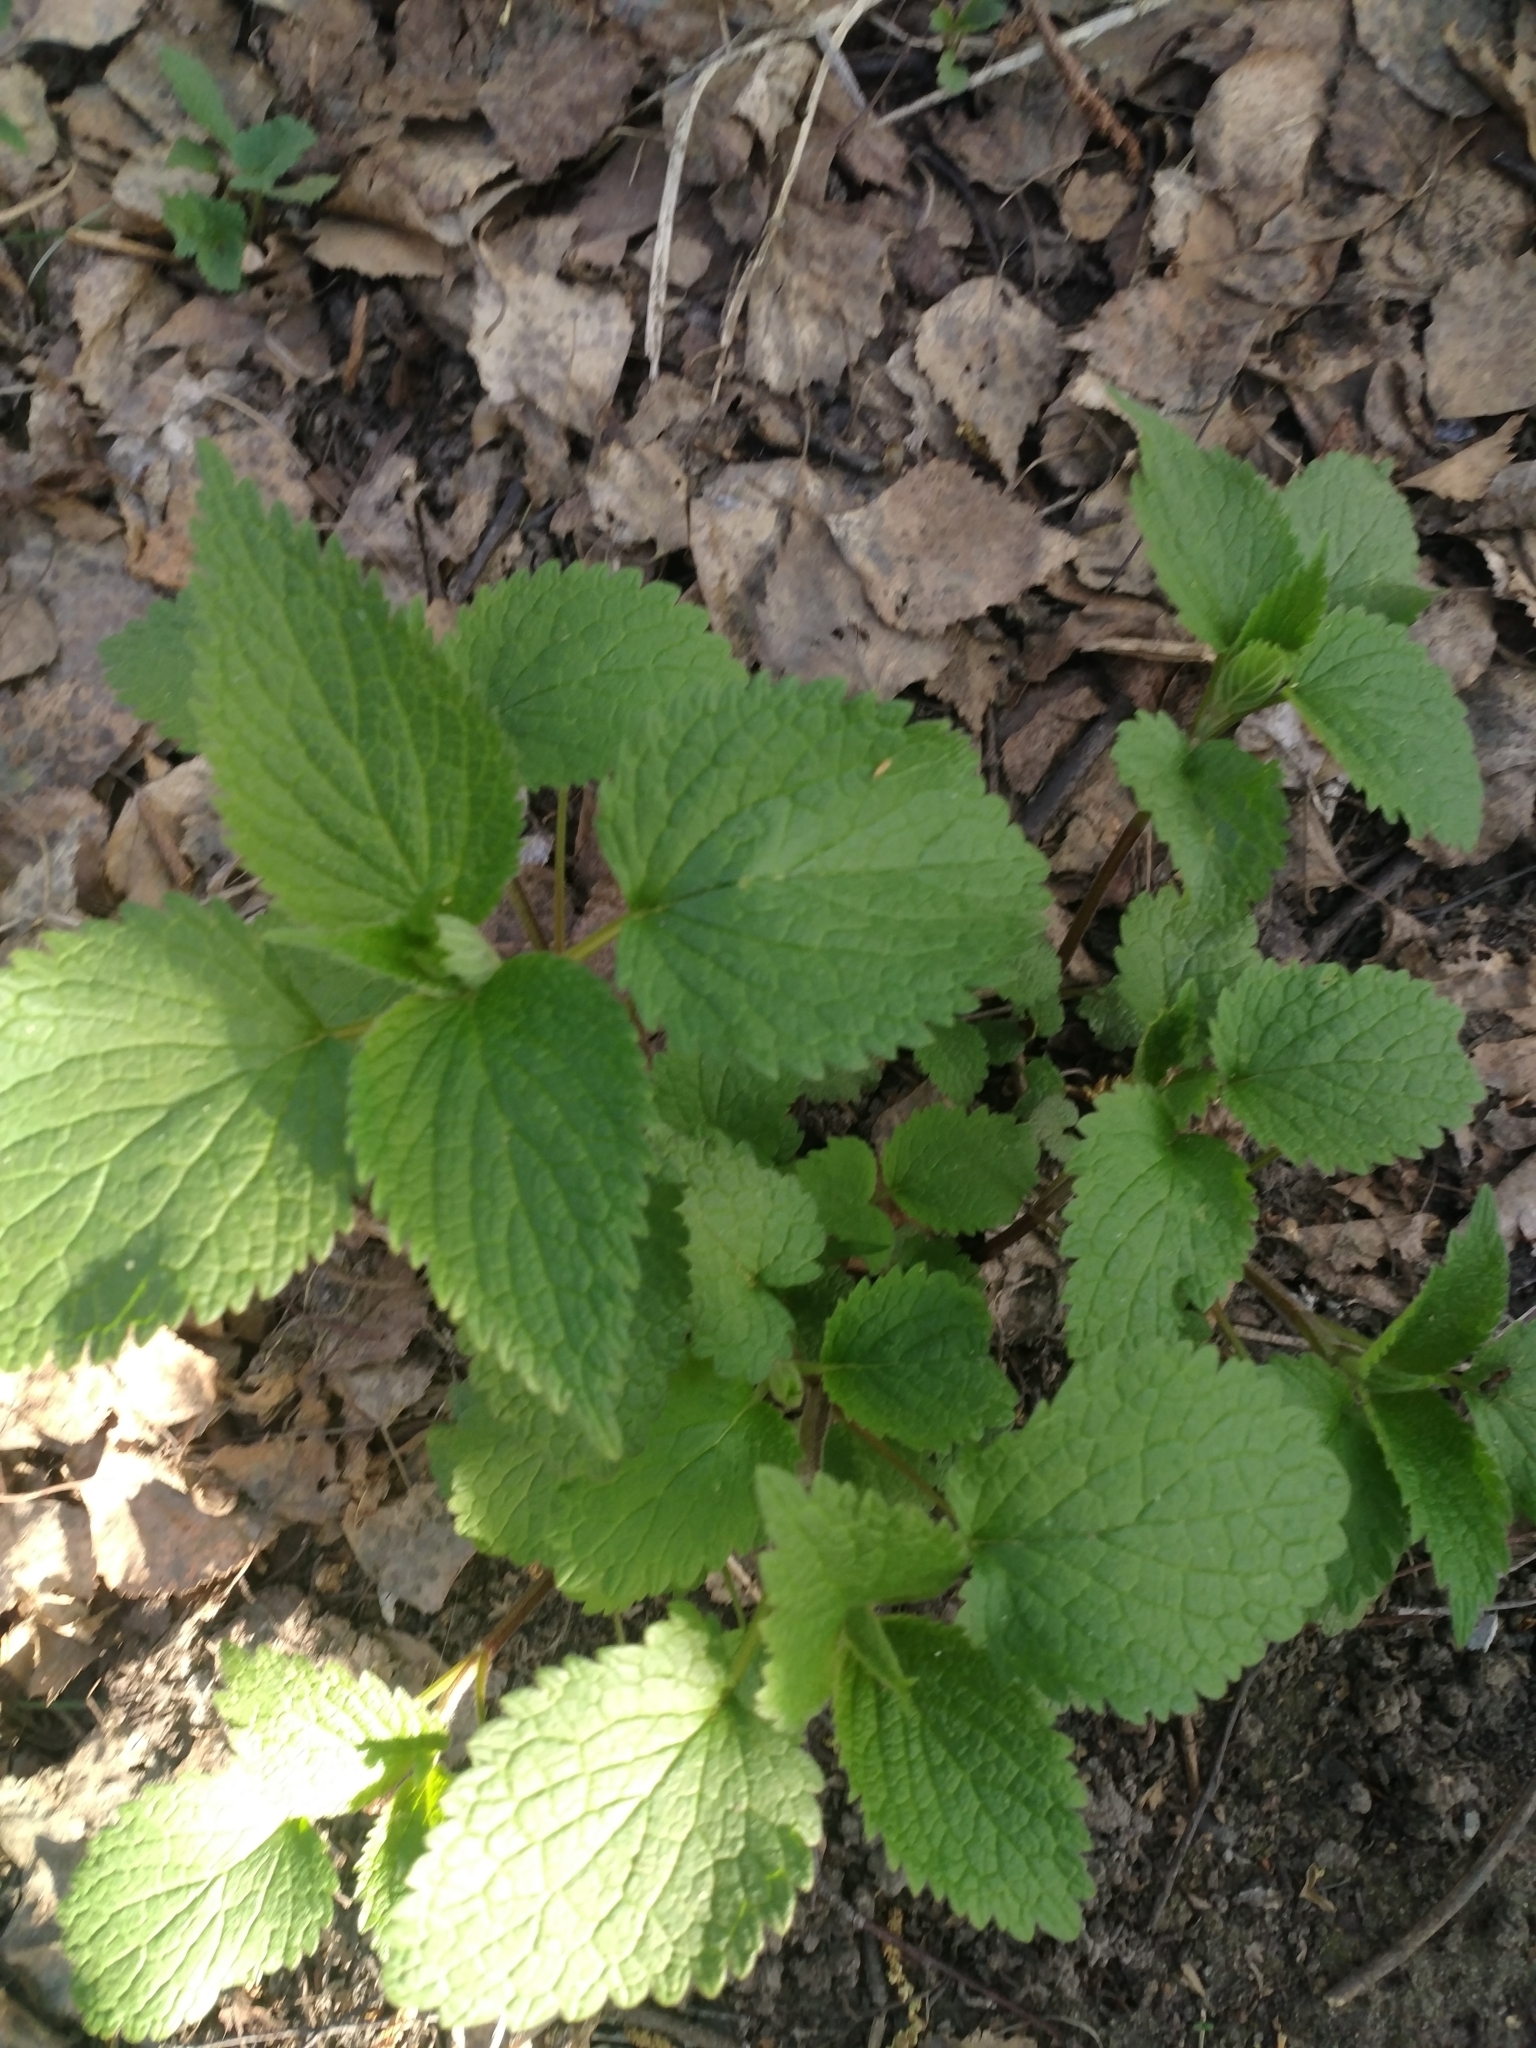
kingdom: Plantae
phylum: Tracheophyta
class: Magnoliopsida
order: Lamiales
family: Lamiaceae
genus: Lamium
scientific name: Lamium album
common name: White dead-nettle
